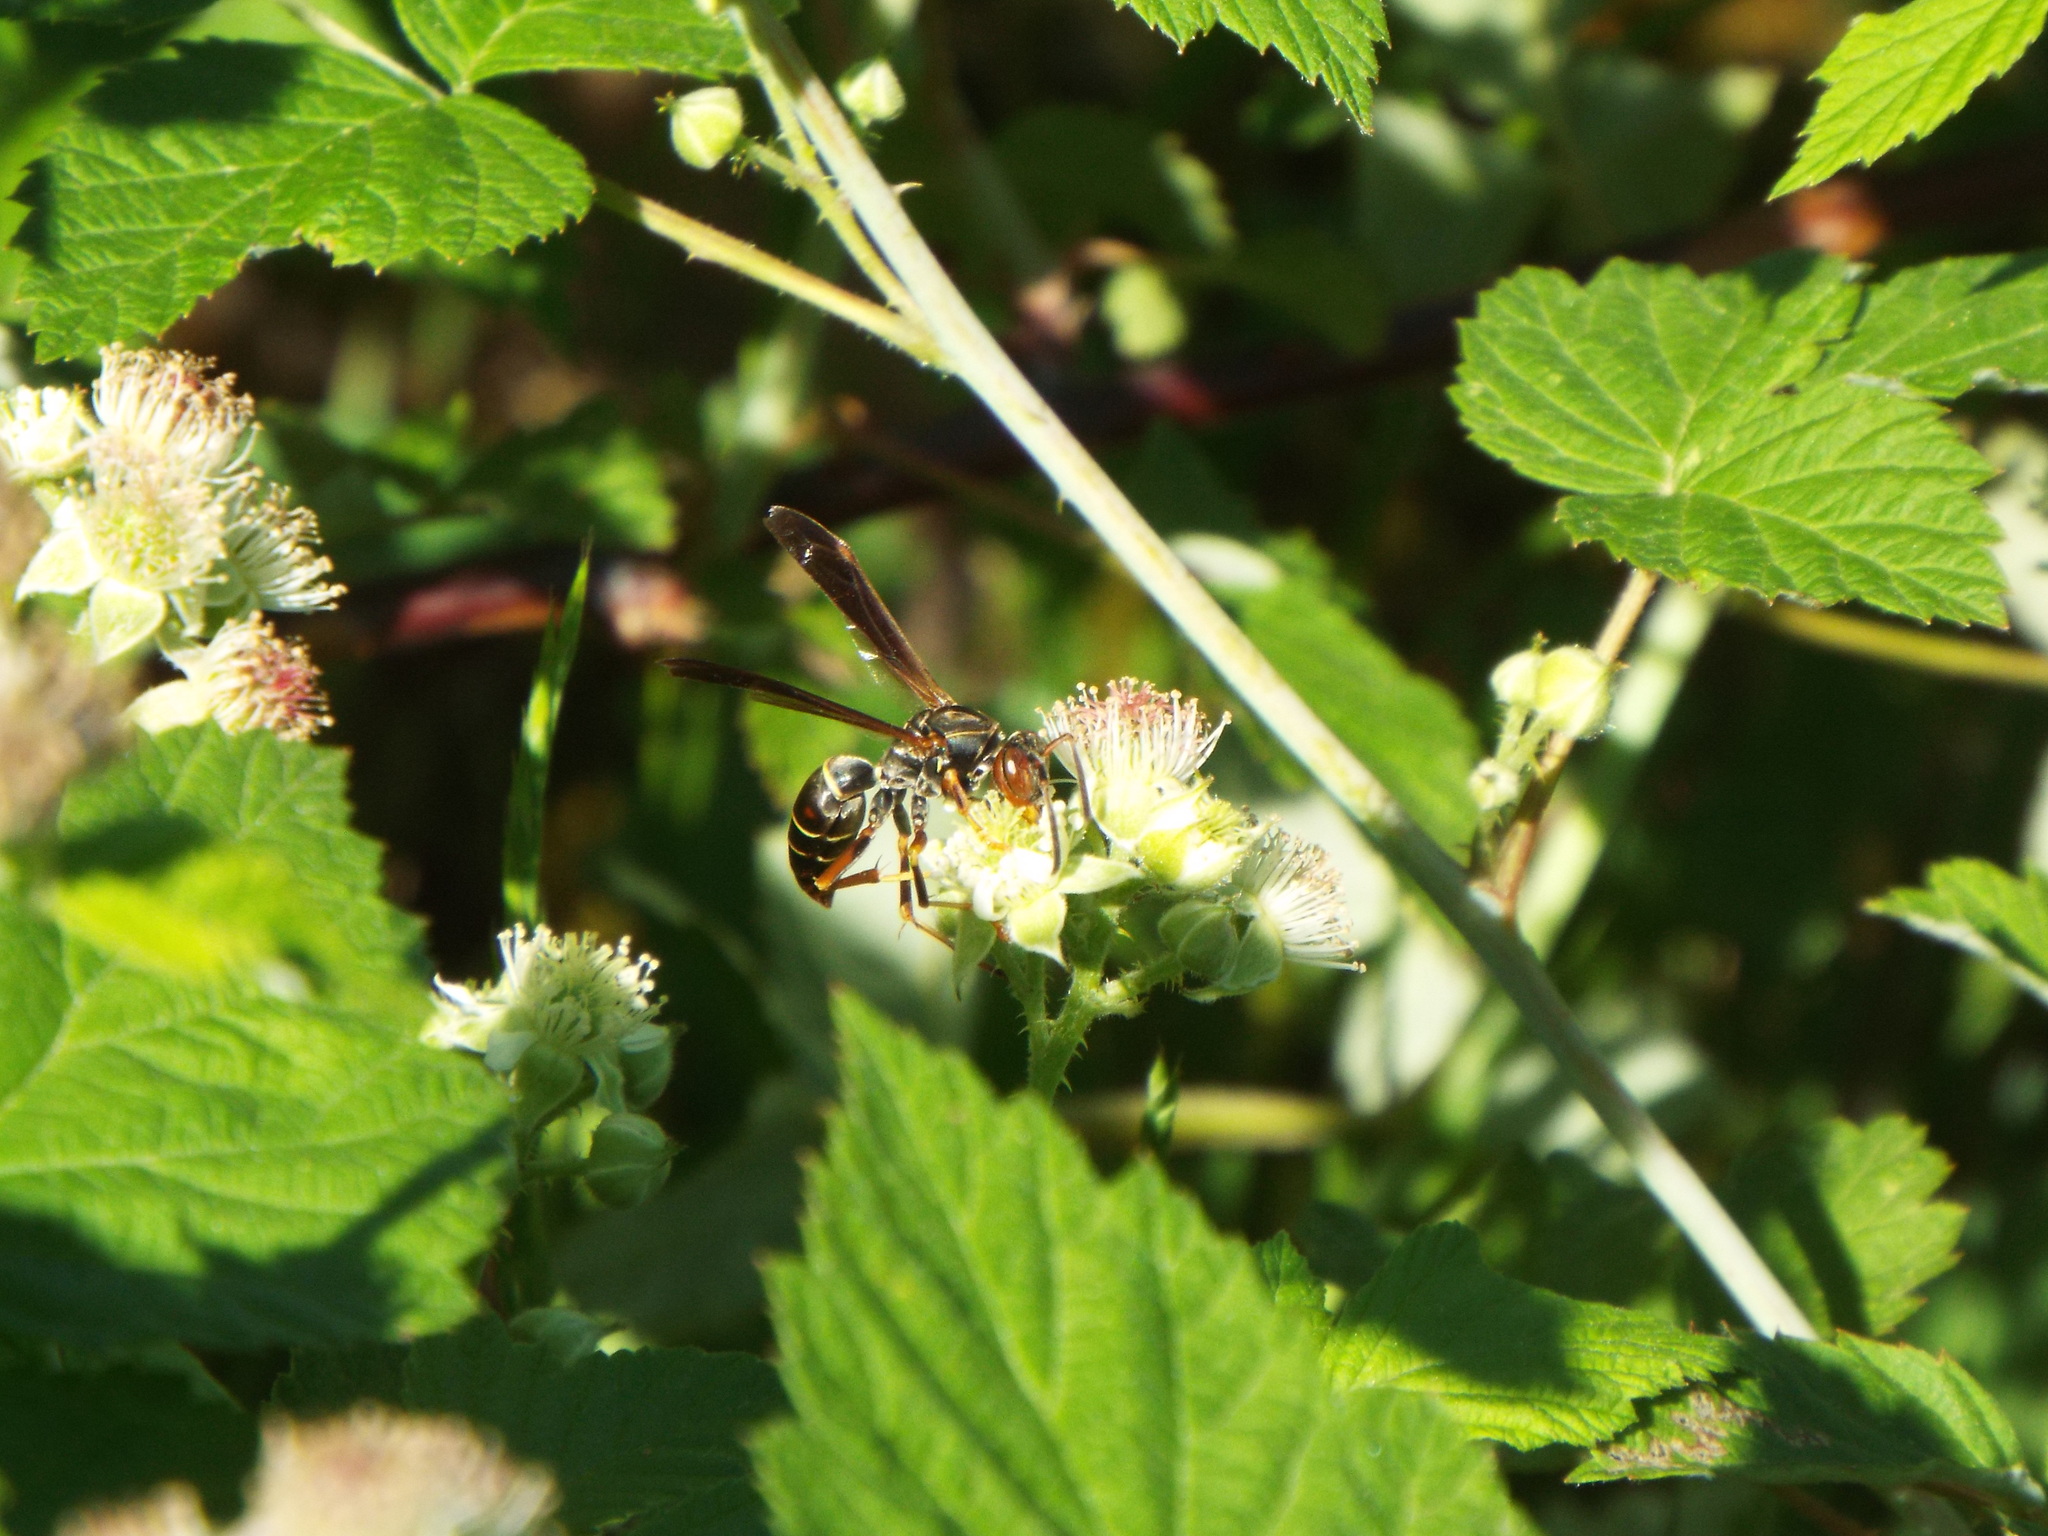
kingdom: Animalia
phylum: Arthropoda
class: Insecta
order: Hymenoptera
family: Eumenidae
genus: Polistes
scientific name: Polistes fuscatus
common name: Dark paper wasp
